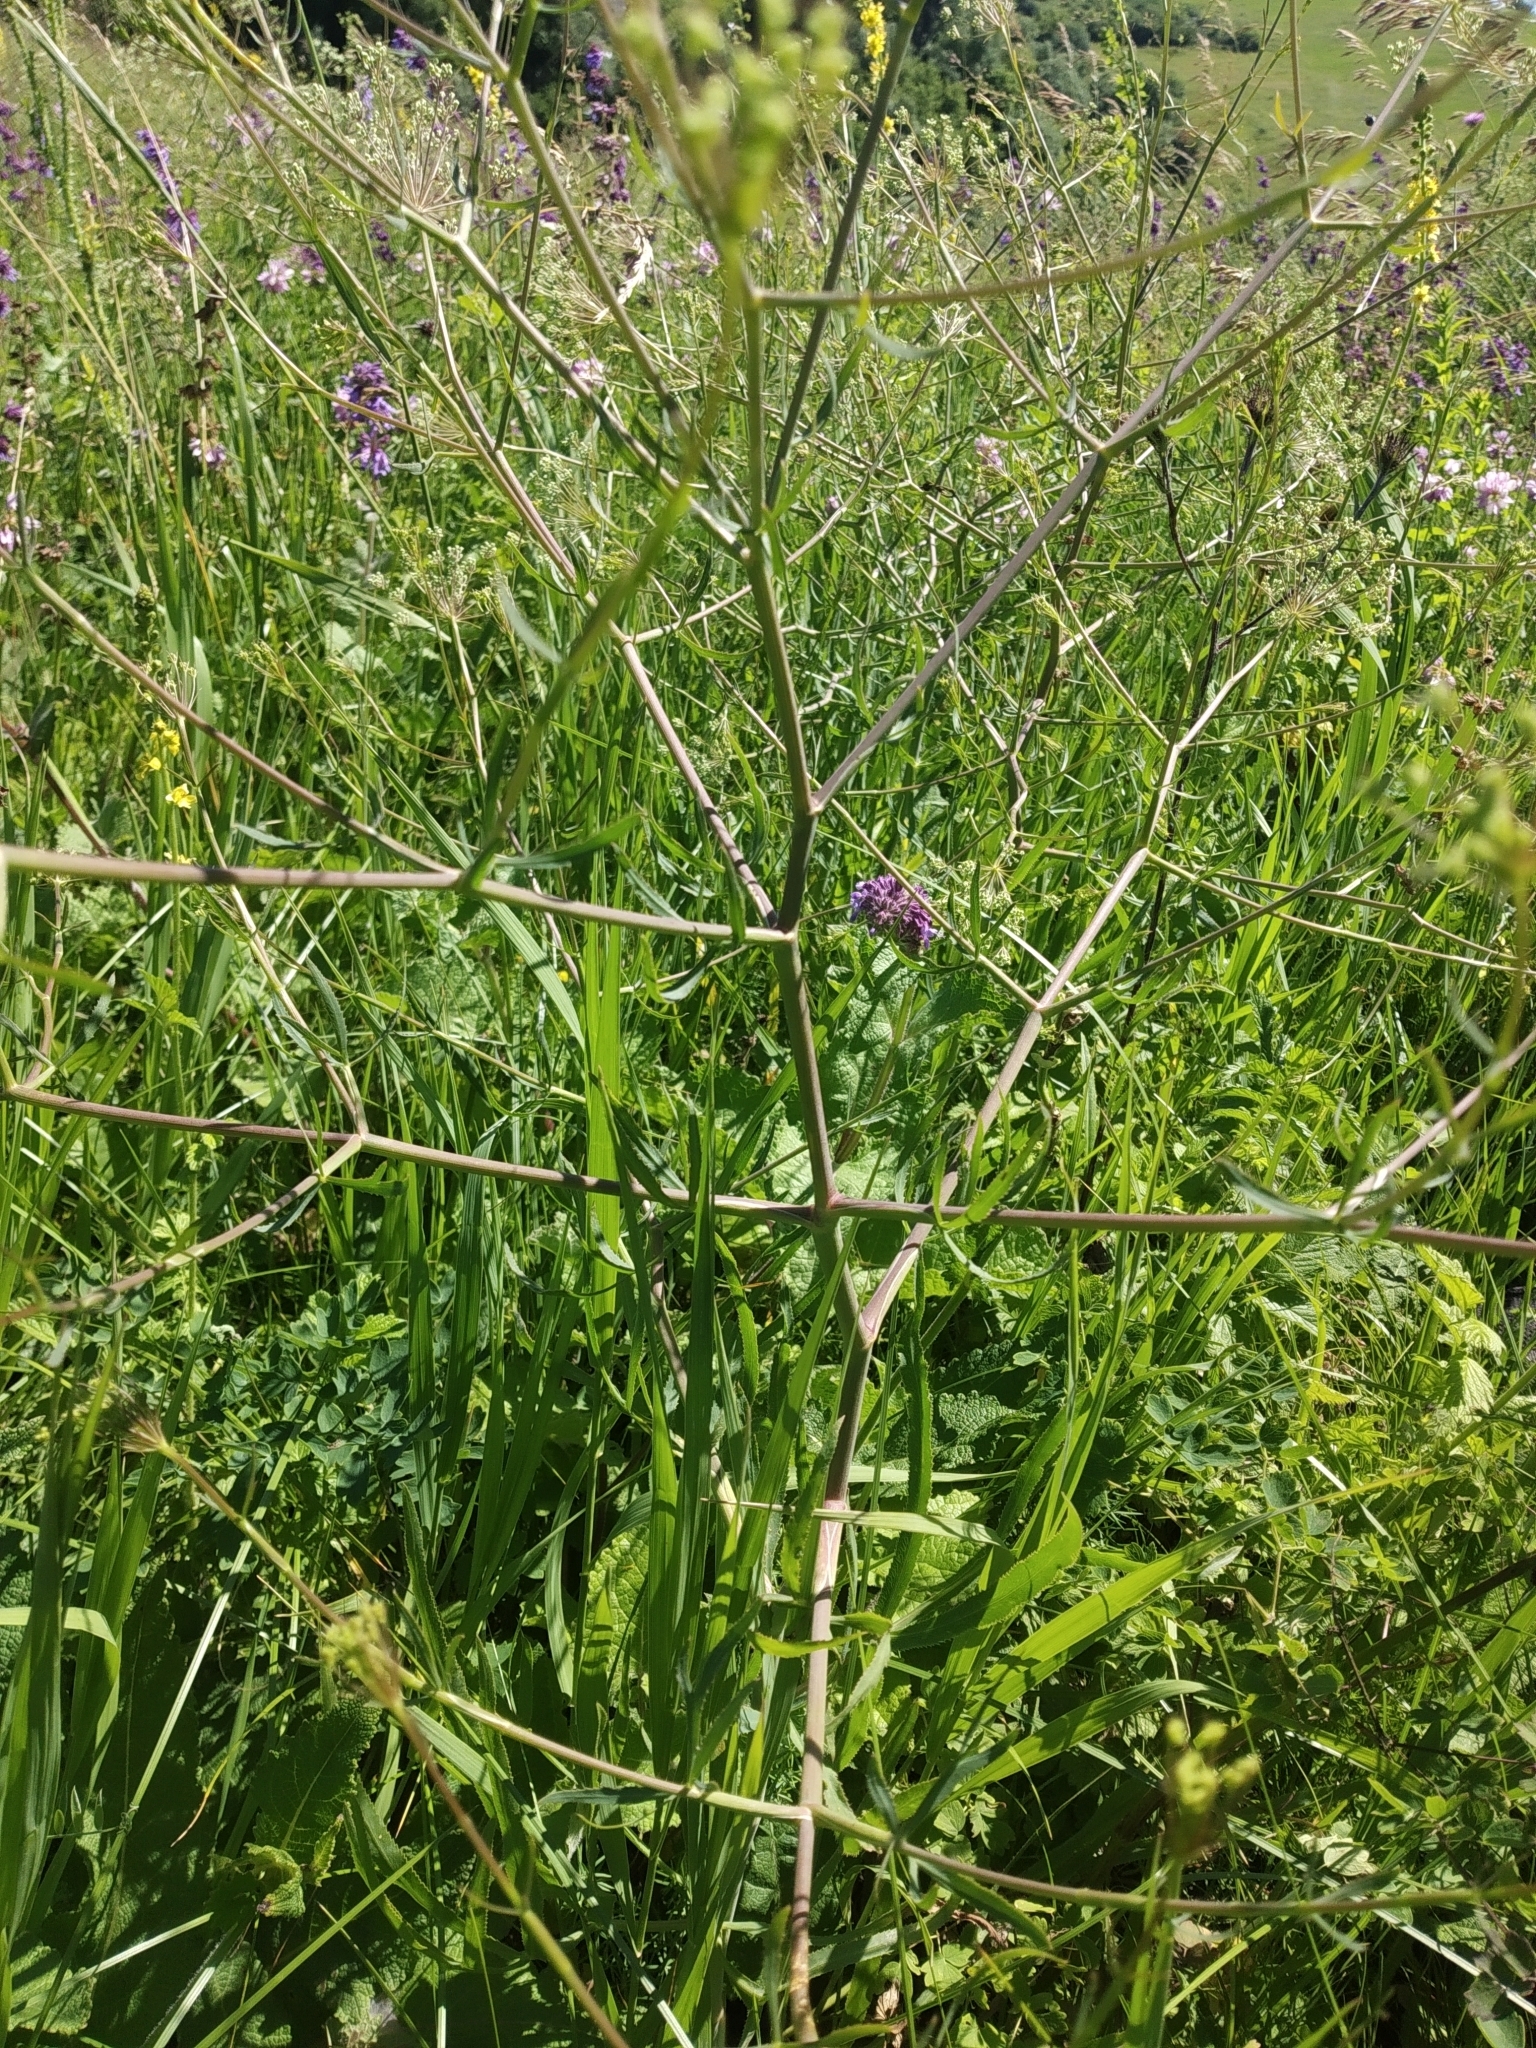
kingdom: Plantae
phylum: Tracheophyta
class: Magnoliopsida
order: Apiales
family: Apiaceae
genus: Falcaria
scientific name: Falcaria vulgaris
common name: Longleaf
